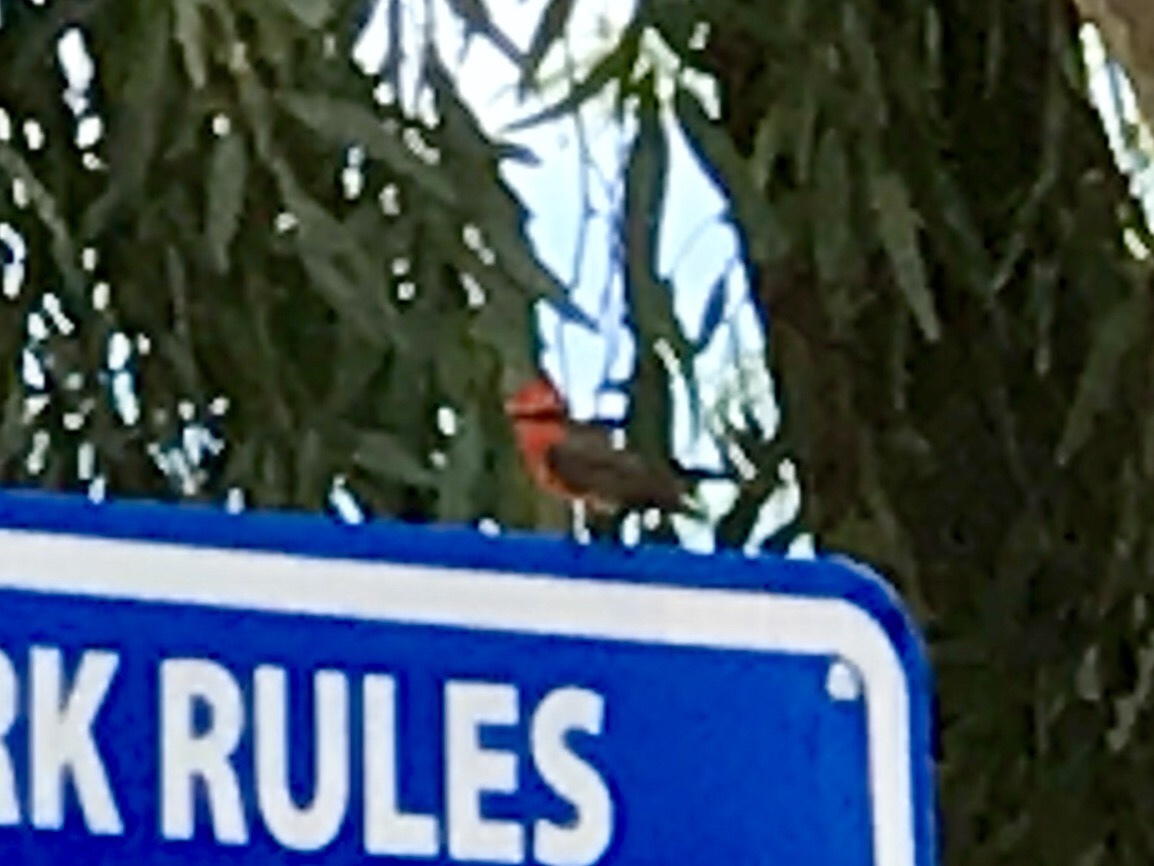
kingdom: Animalia
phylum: Chordata
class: Aves
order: Passeriformes
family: Tyrannidae
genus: Pyrocephalus
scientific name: Pyrocephalus rubinus
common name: Vermilion flycatcher
